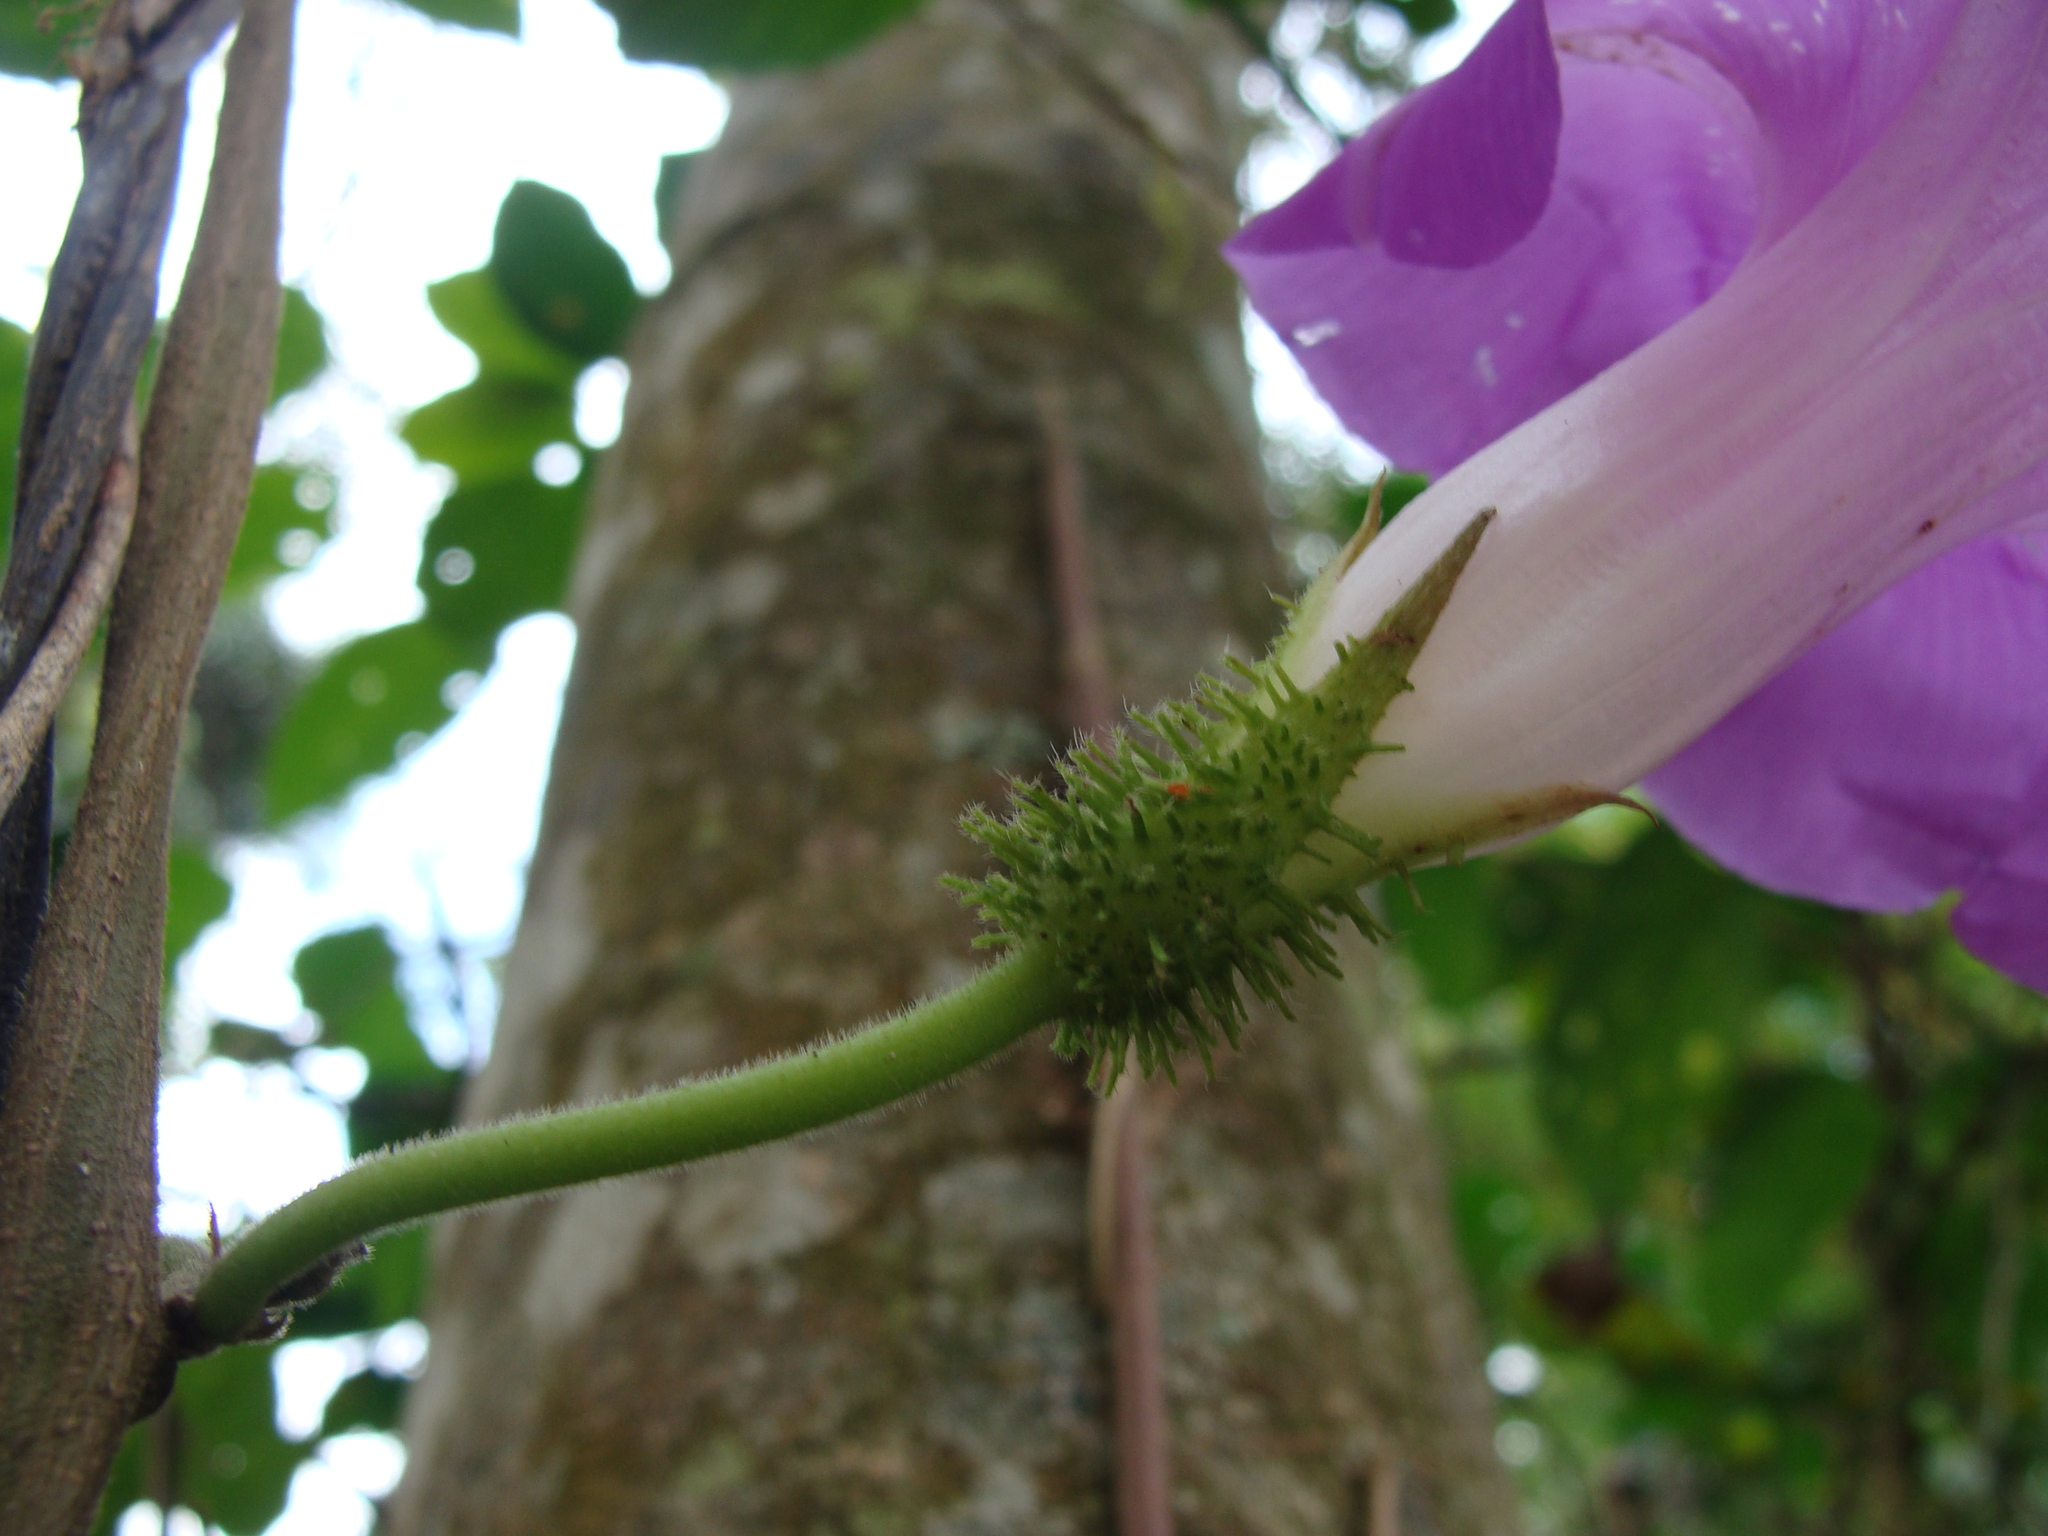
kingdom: Plantae
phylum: Tracheophyta
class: Magnoliopsida
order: Solanales
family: Convolvulaceae
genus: Ipomoea
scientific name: Ipomoea silvicola
